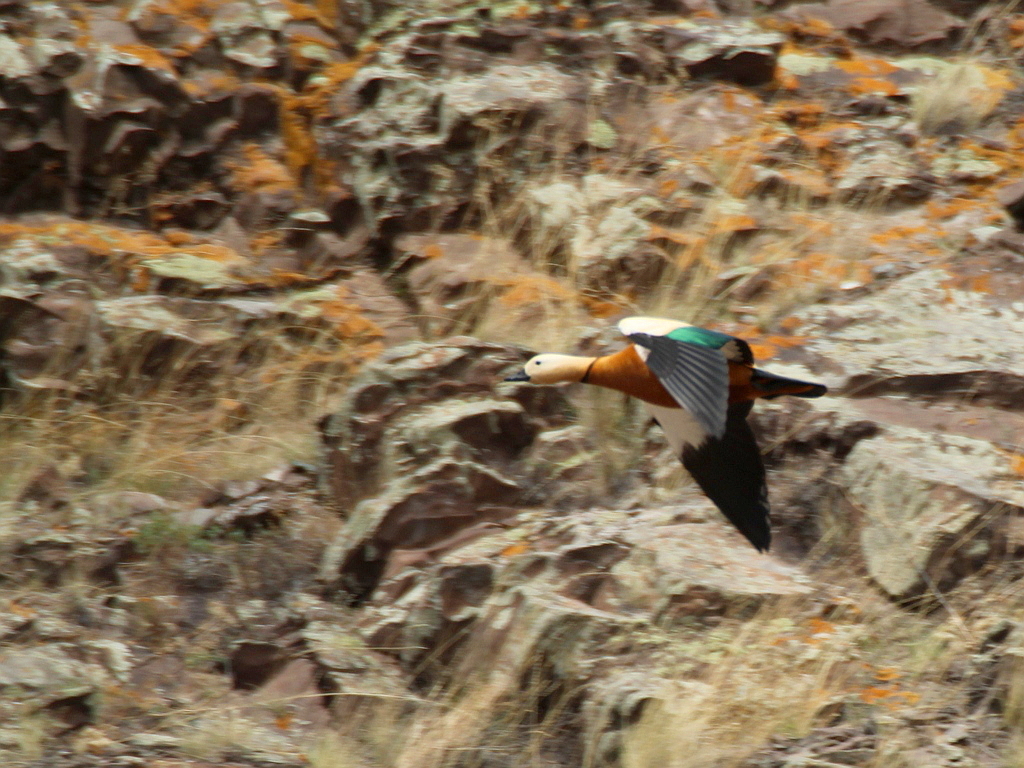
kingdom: Animalia
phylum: Chordata
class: Aves
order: Anseriformes
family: Anatidae
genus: Tadorna
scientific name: Tadorna ferruginea
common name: Ruddy shelduck
